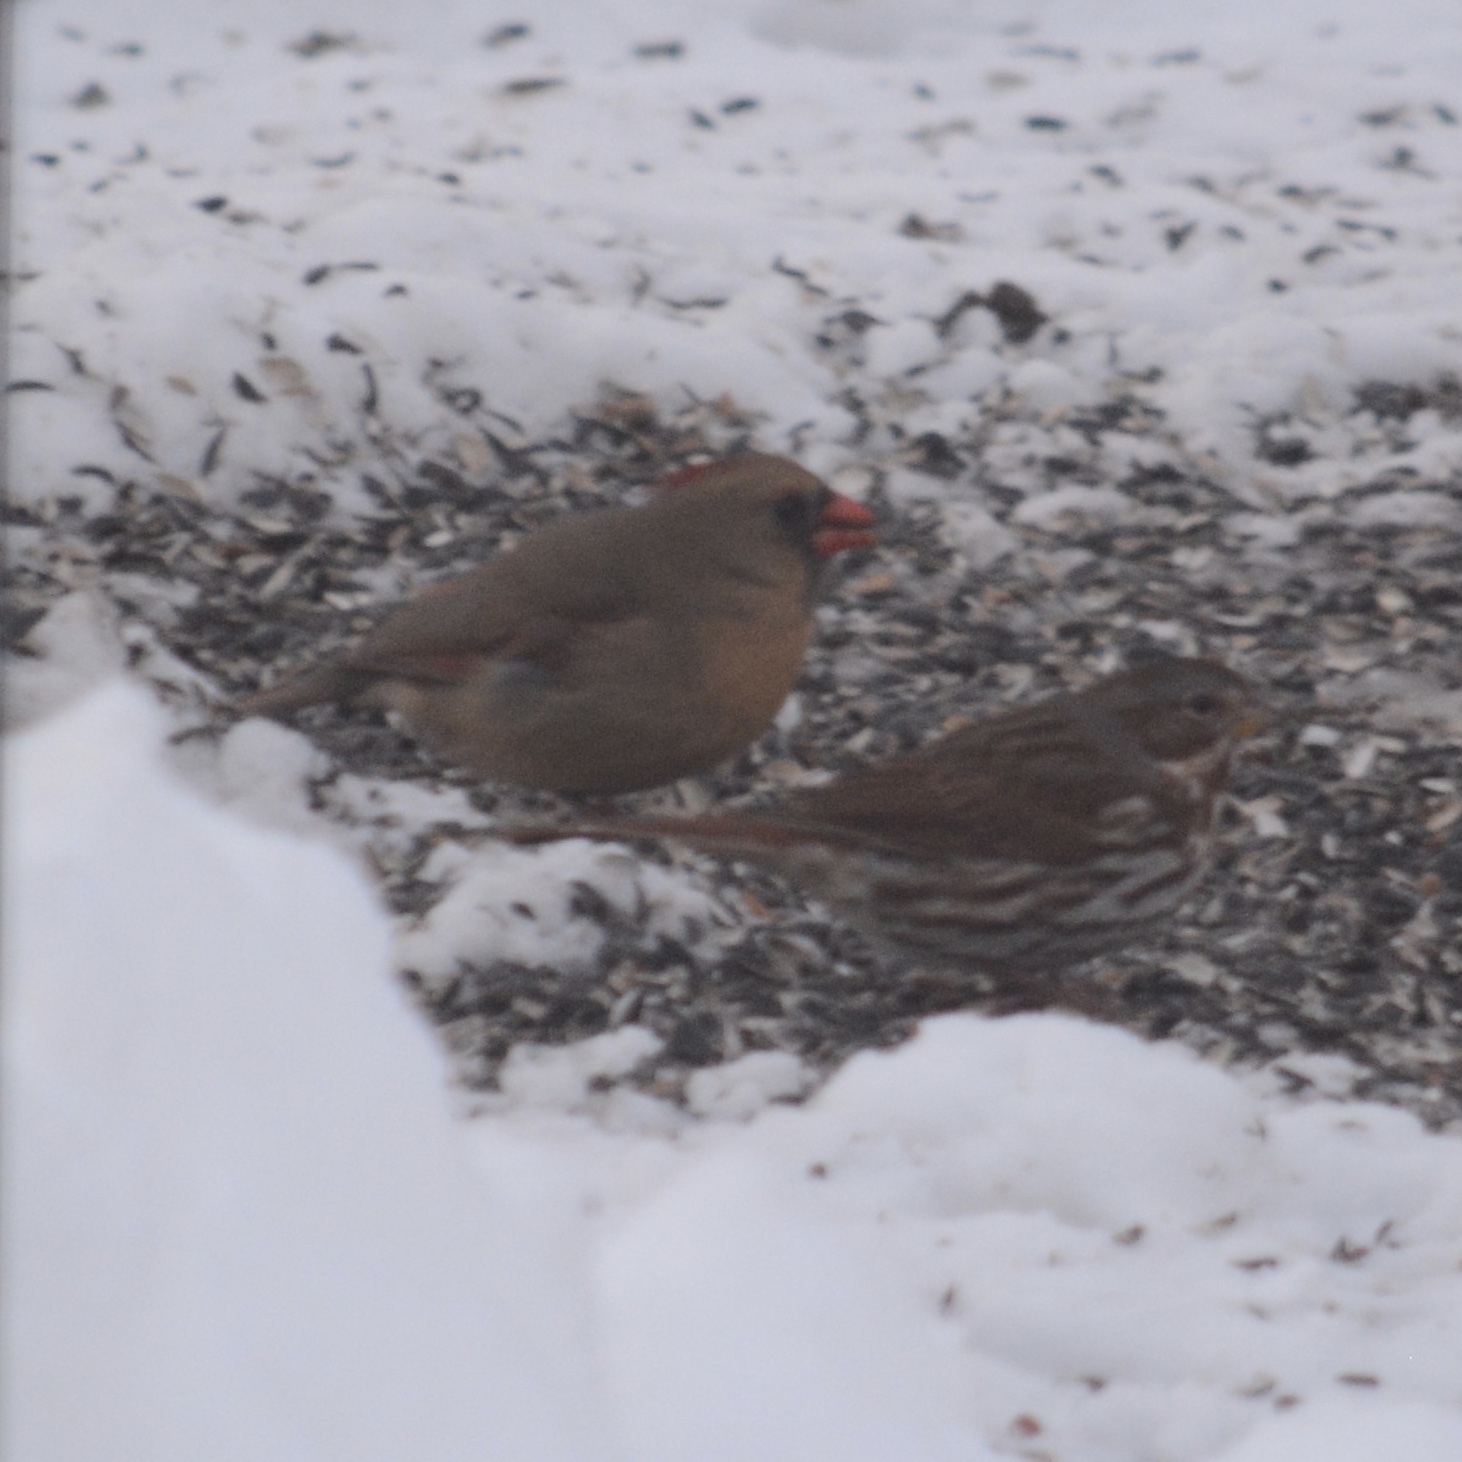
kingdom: Animalia
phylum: Chordata
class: Aves
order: Passeriformes
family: Passerellidae
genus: Passerella
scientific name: Passerella iliaca
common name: Fox sparrow
